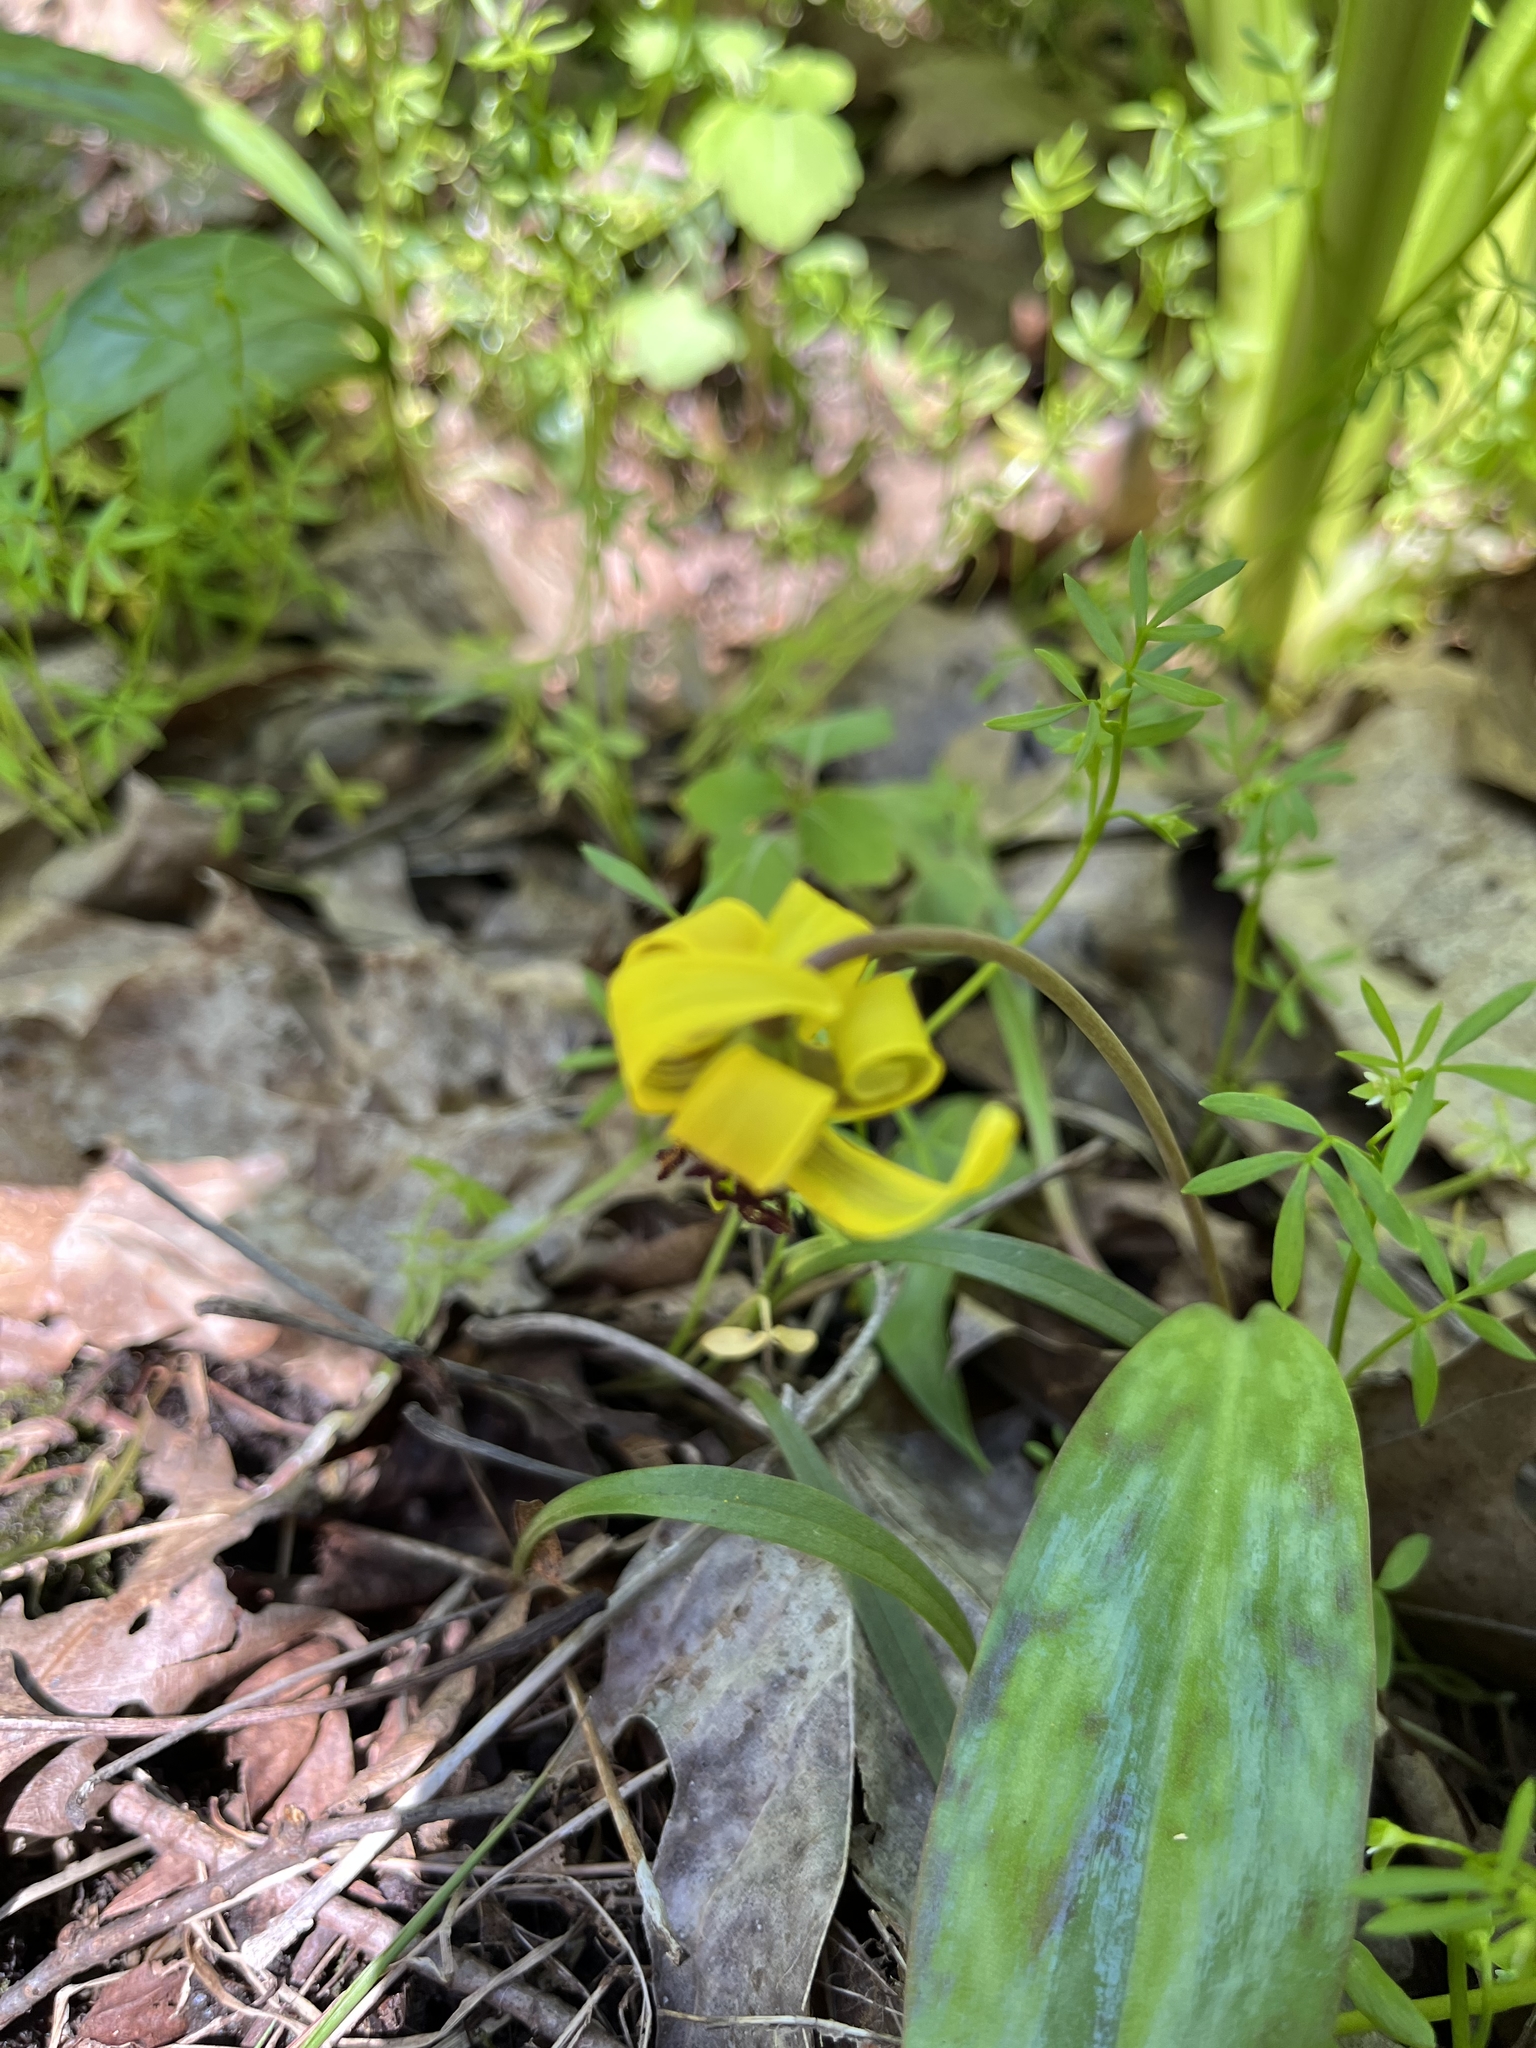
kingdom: Plantae
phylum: Tracheophyta
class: Liliopsida
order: Liliales
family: Liliaceae
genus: Erythronium
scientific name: Erythronium americanum
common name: Yellow adder's-tongue
